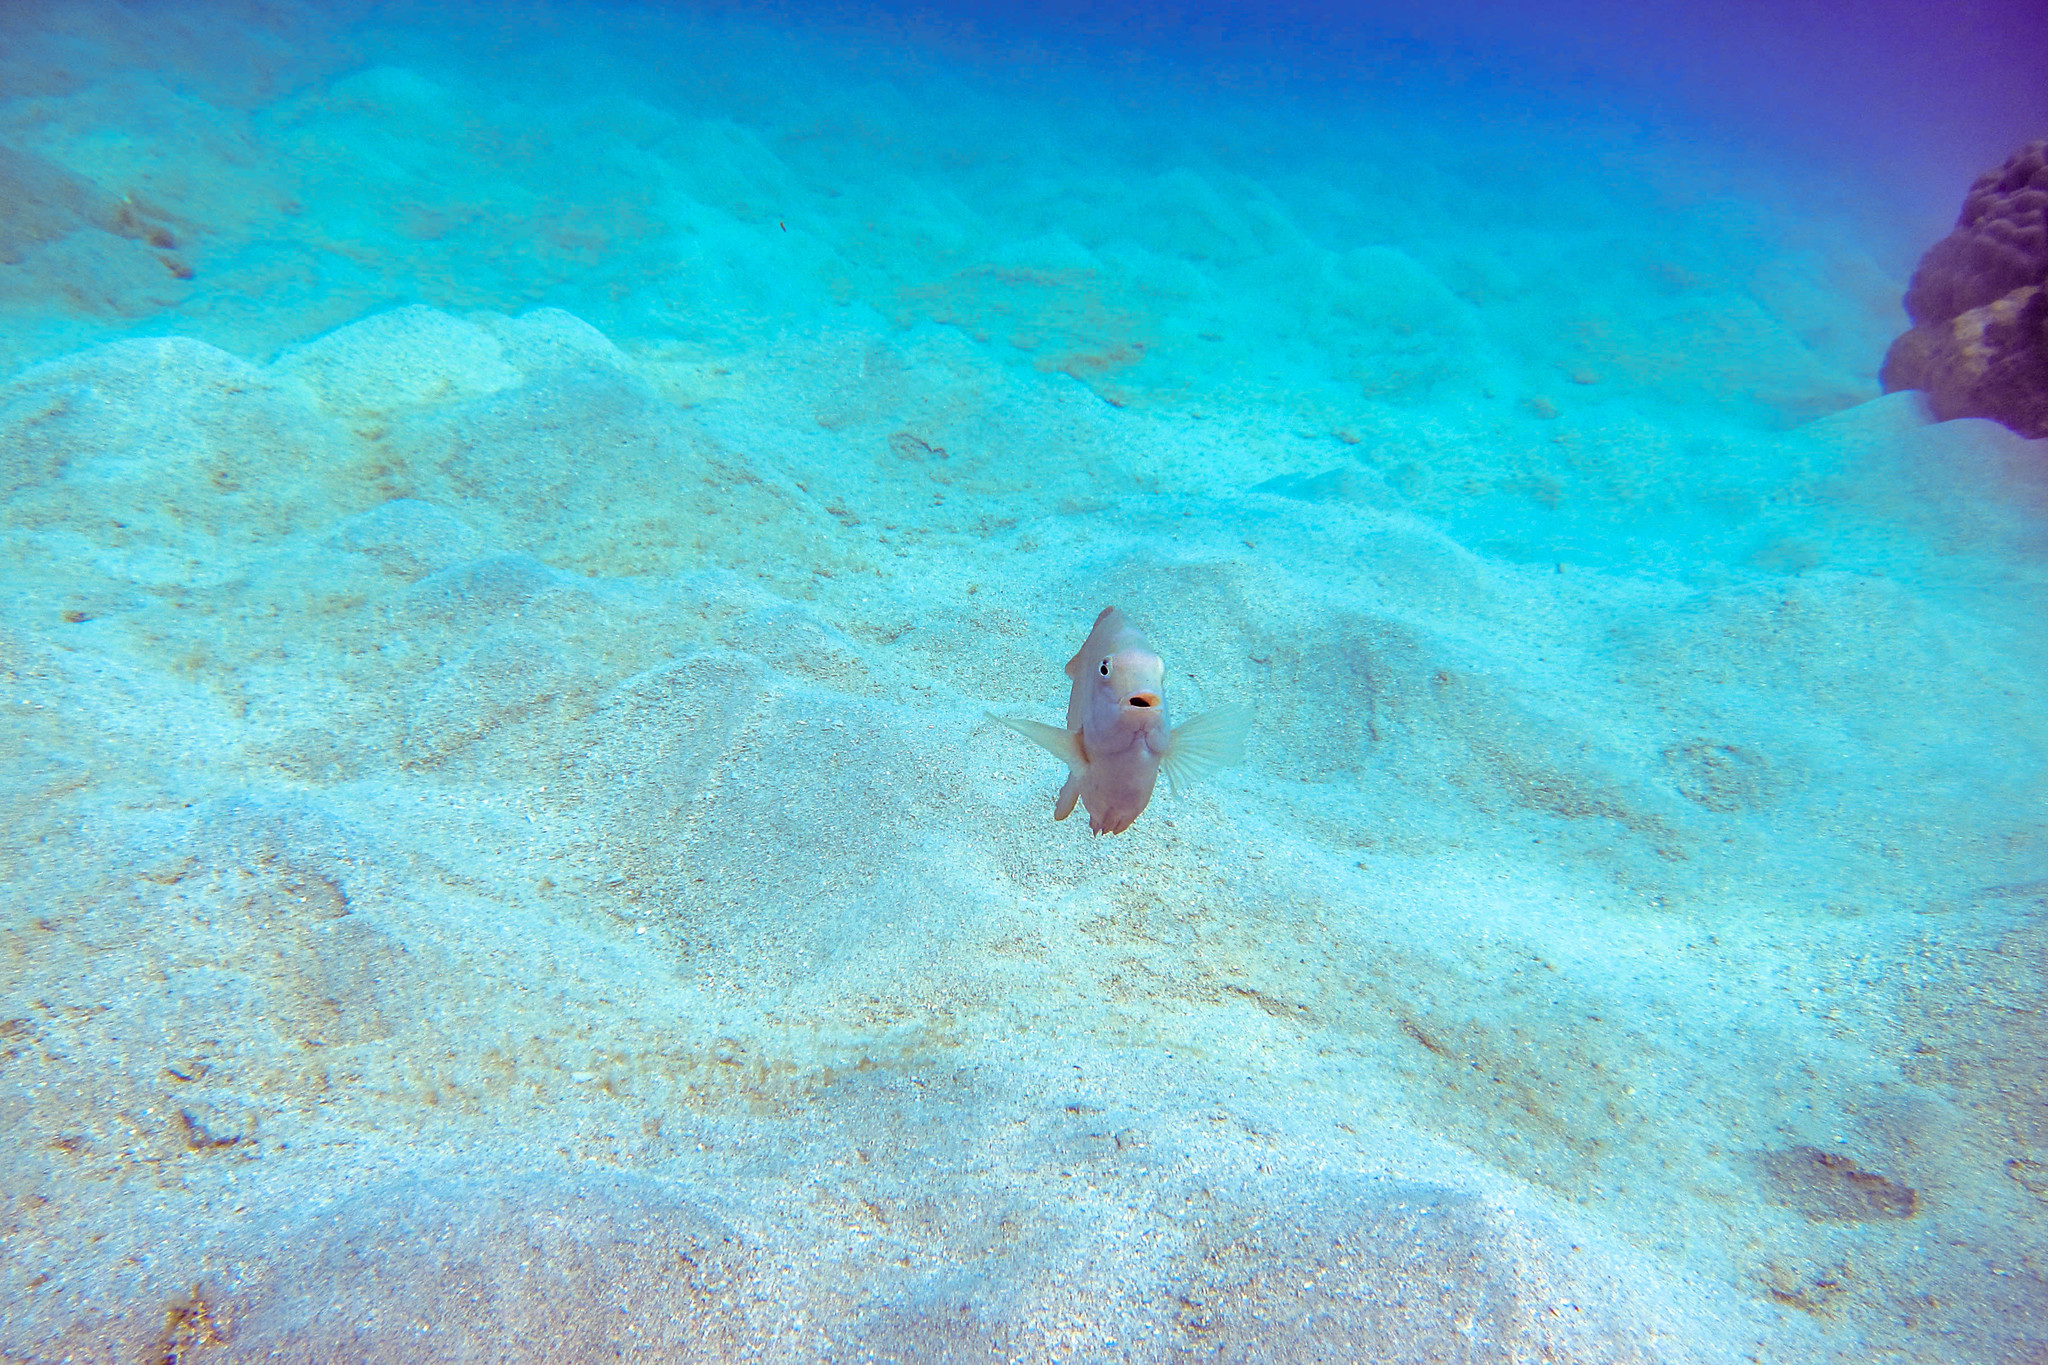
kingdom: Animalia
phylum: Chordata
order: Perciformes
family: Pomacentridae
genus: Dischistodus
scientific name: Dischistodus perspicillatus
